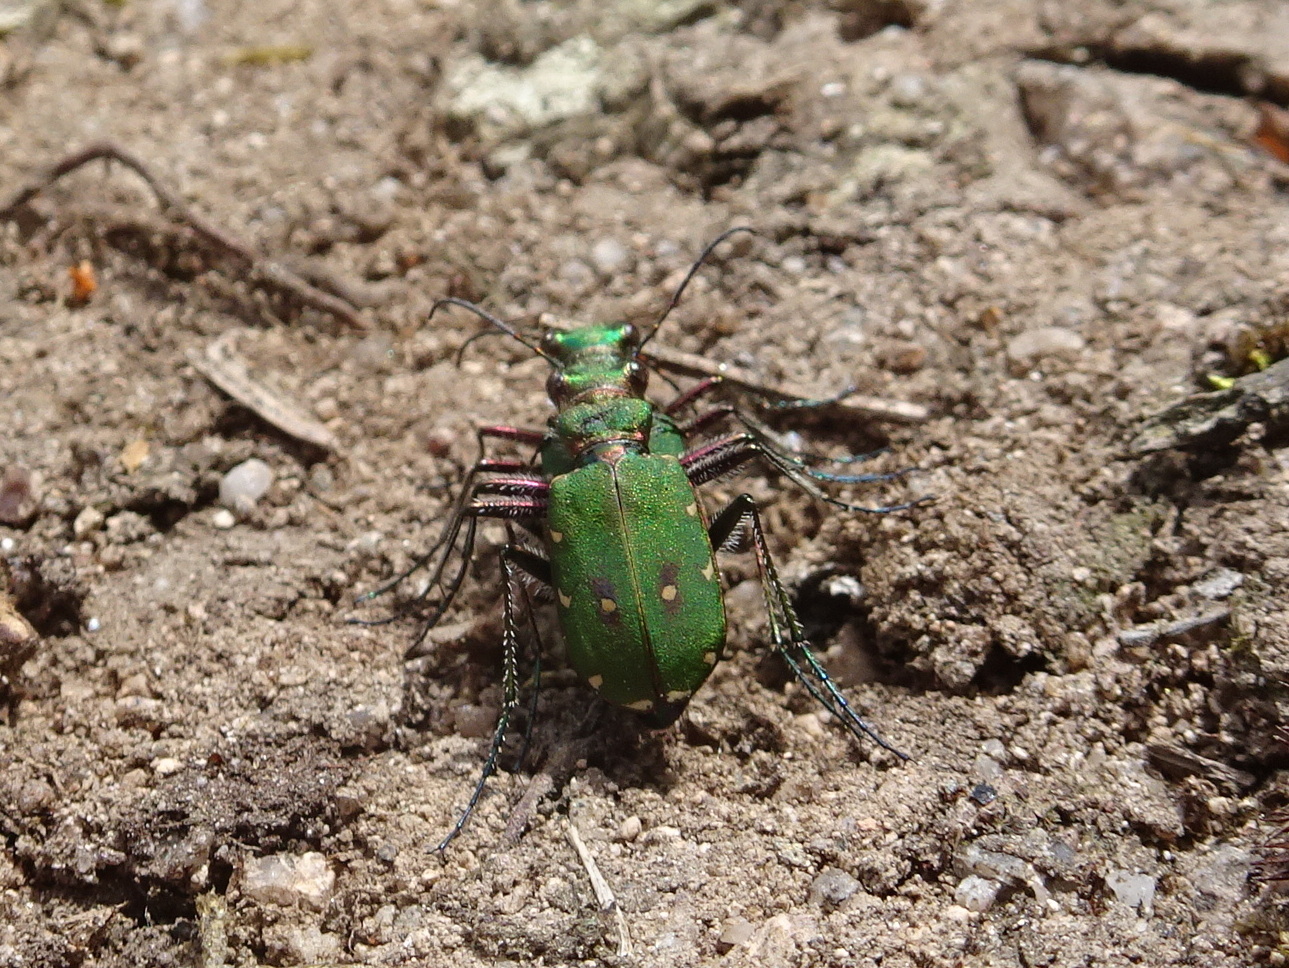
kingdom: Animalia
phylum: Arthropoda
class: Insecta
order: Coleoptera
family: Carabidae
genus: Cicindela
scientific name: Cicindela campestris
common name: Common tiger beetle
